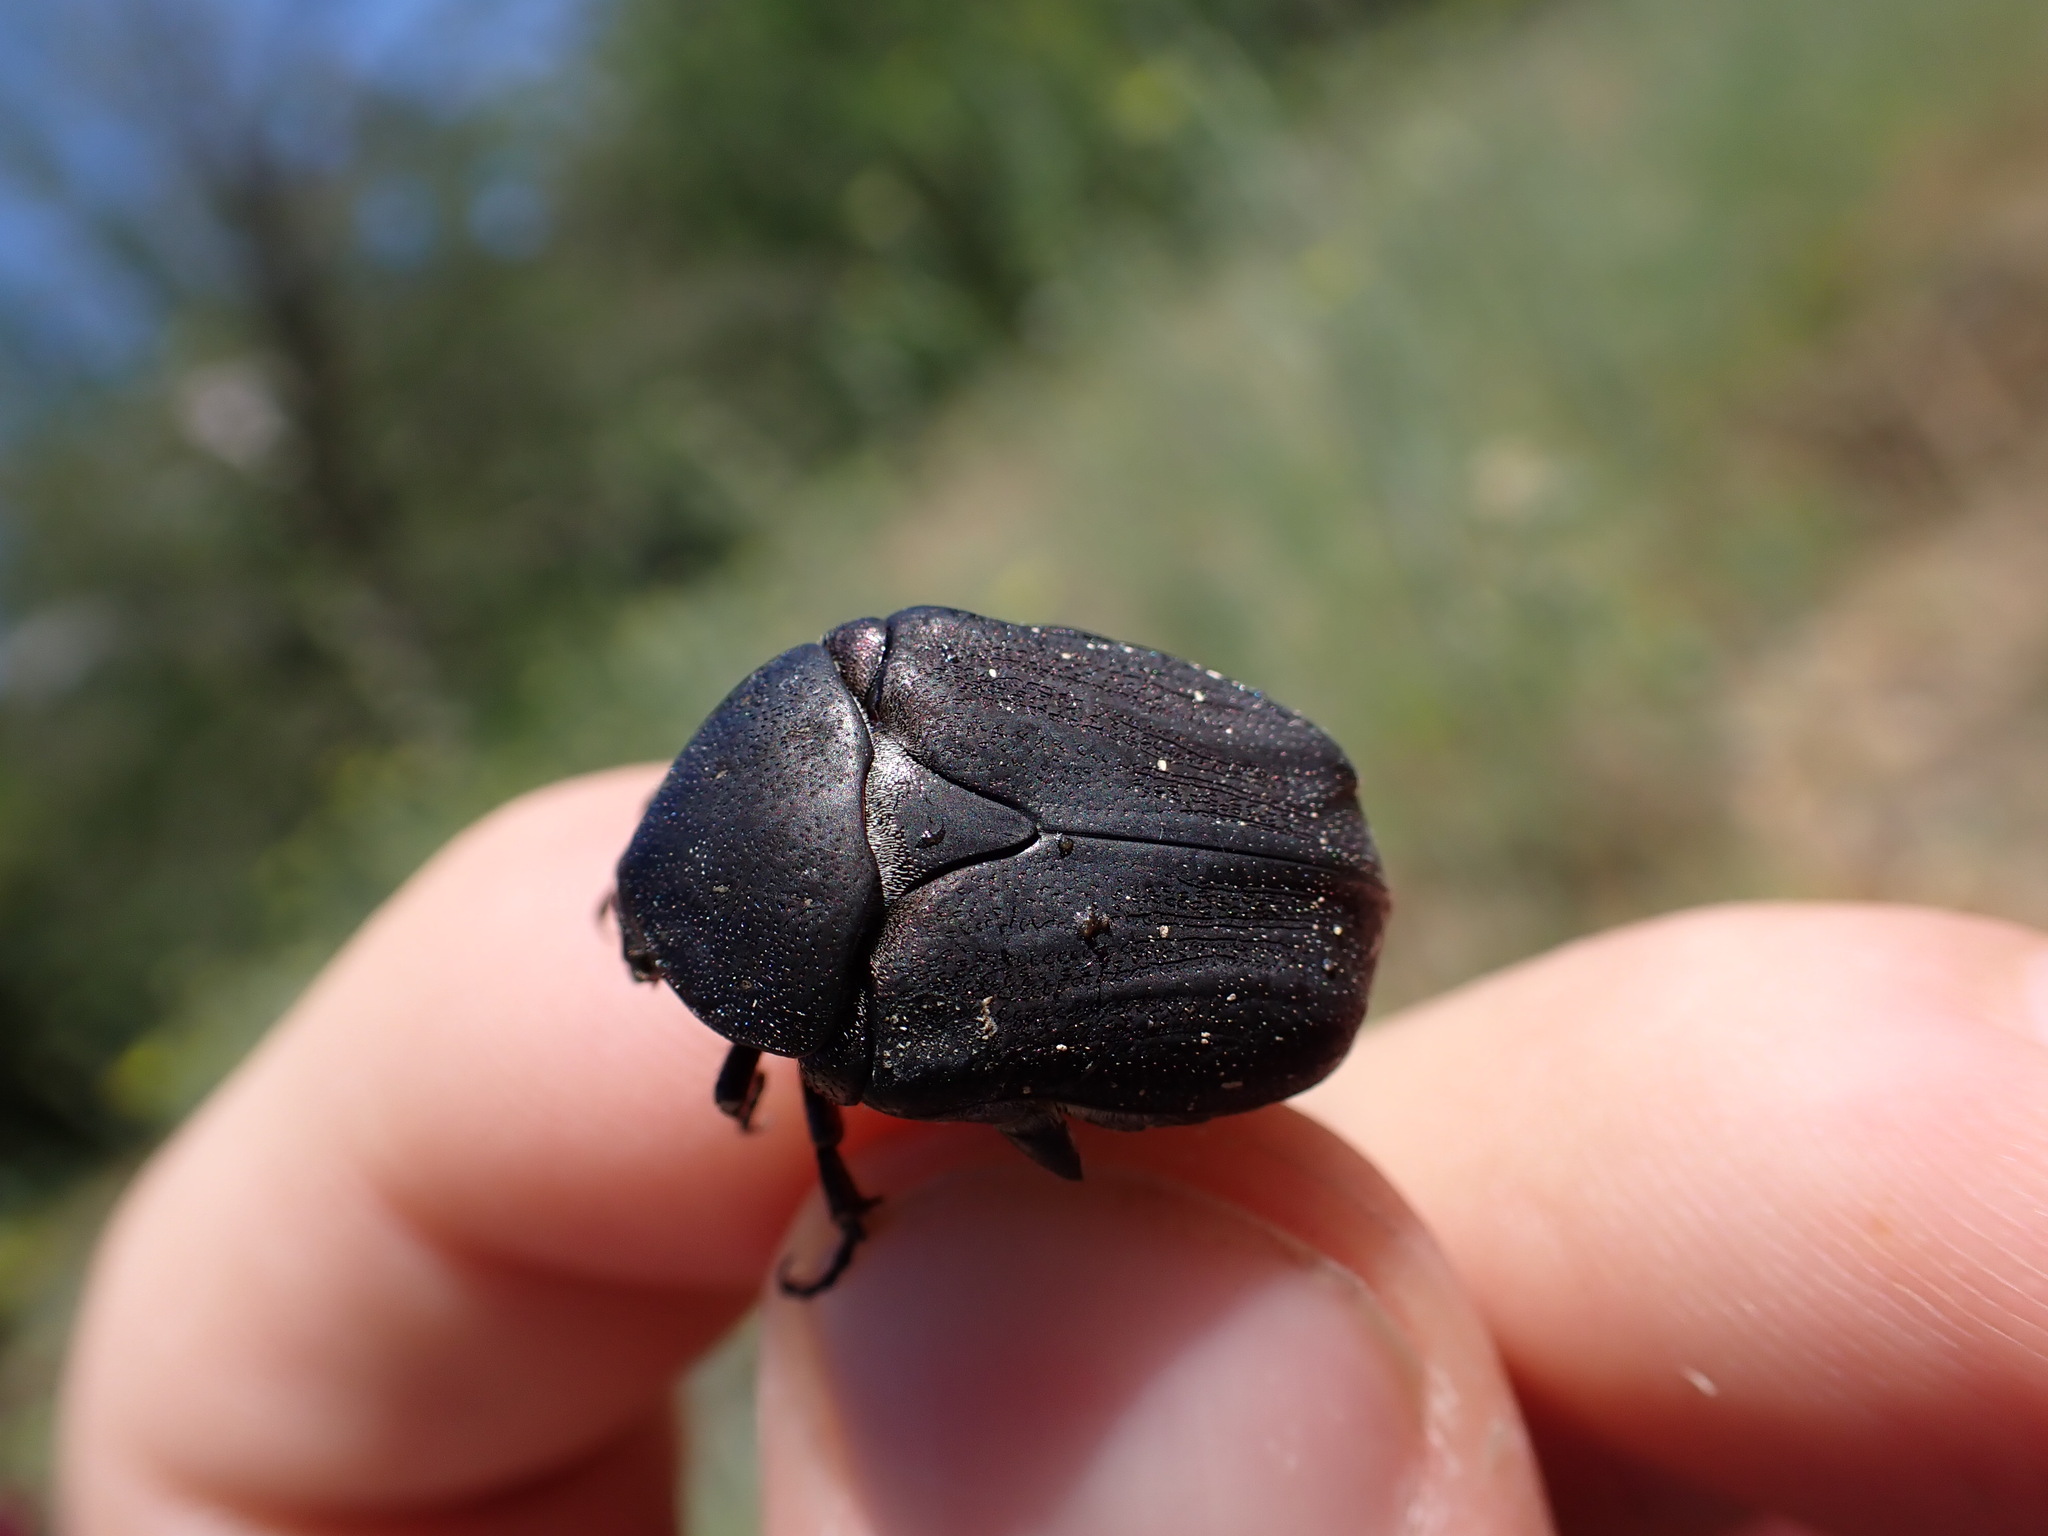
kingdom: Animalia
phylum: Arthropoda
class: Insecta
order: Coleoptera
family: Scarabaeidae
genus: Protaetia
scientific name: Protaetia morio
